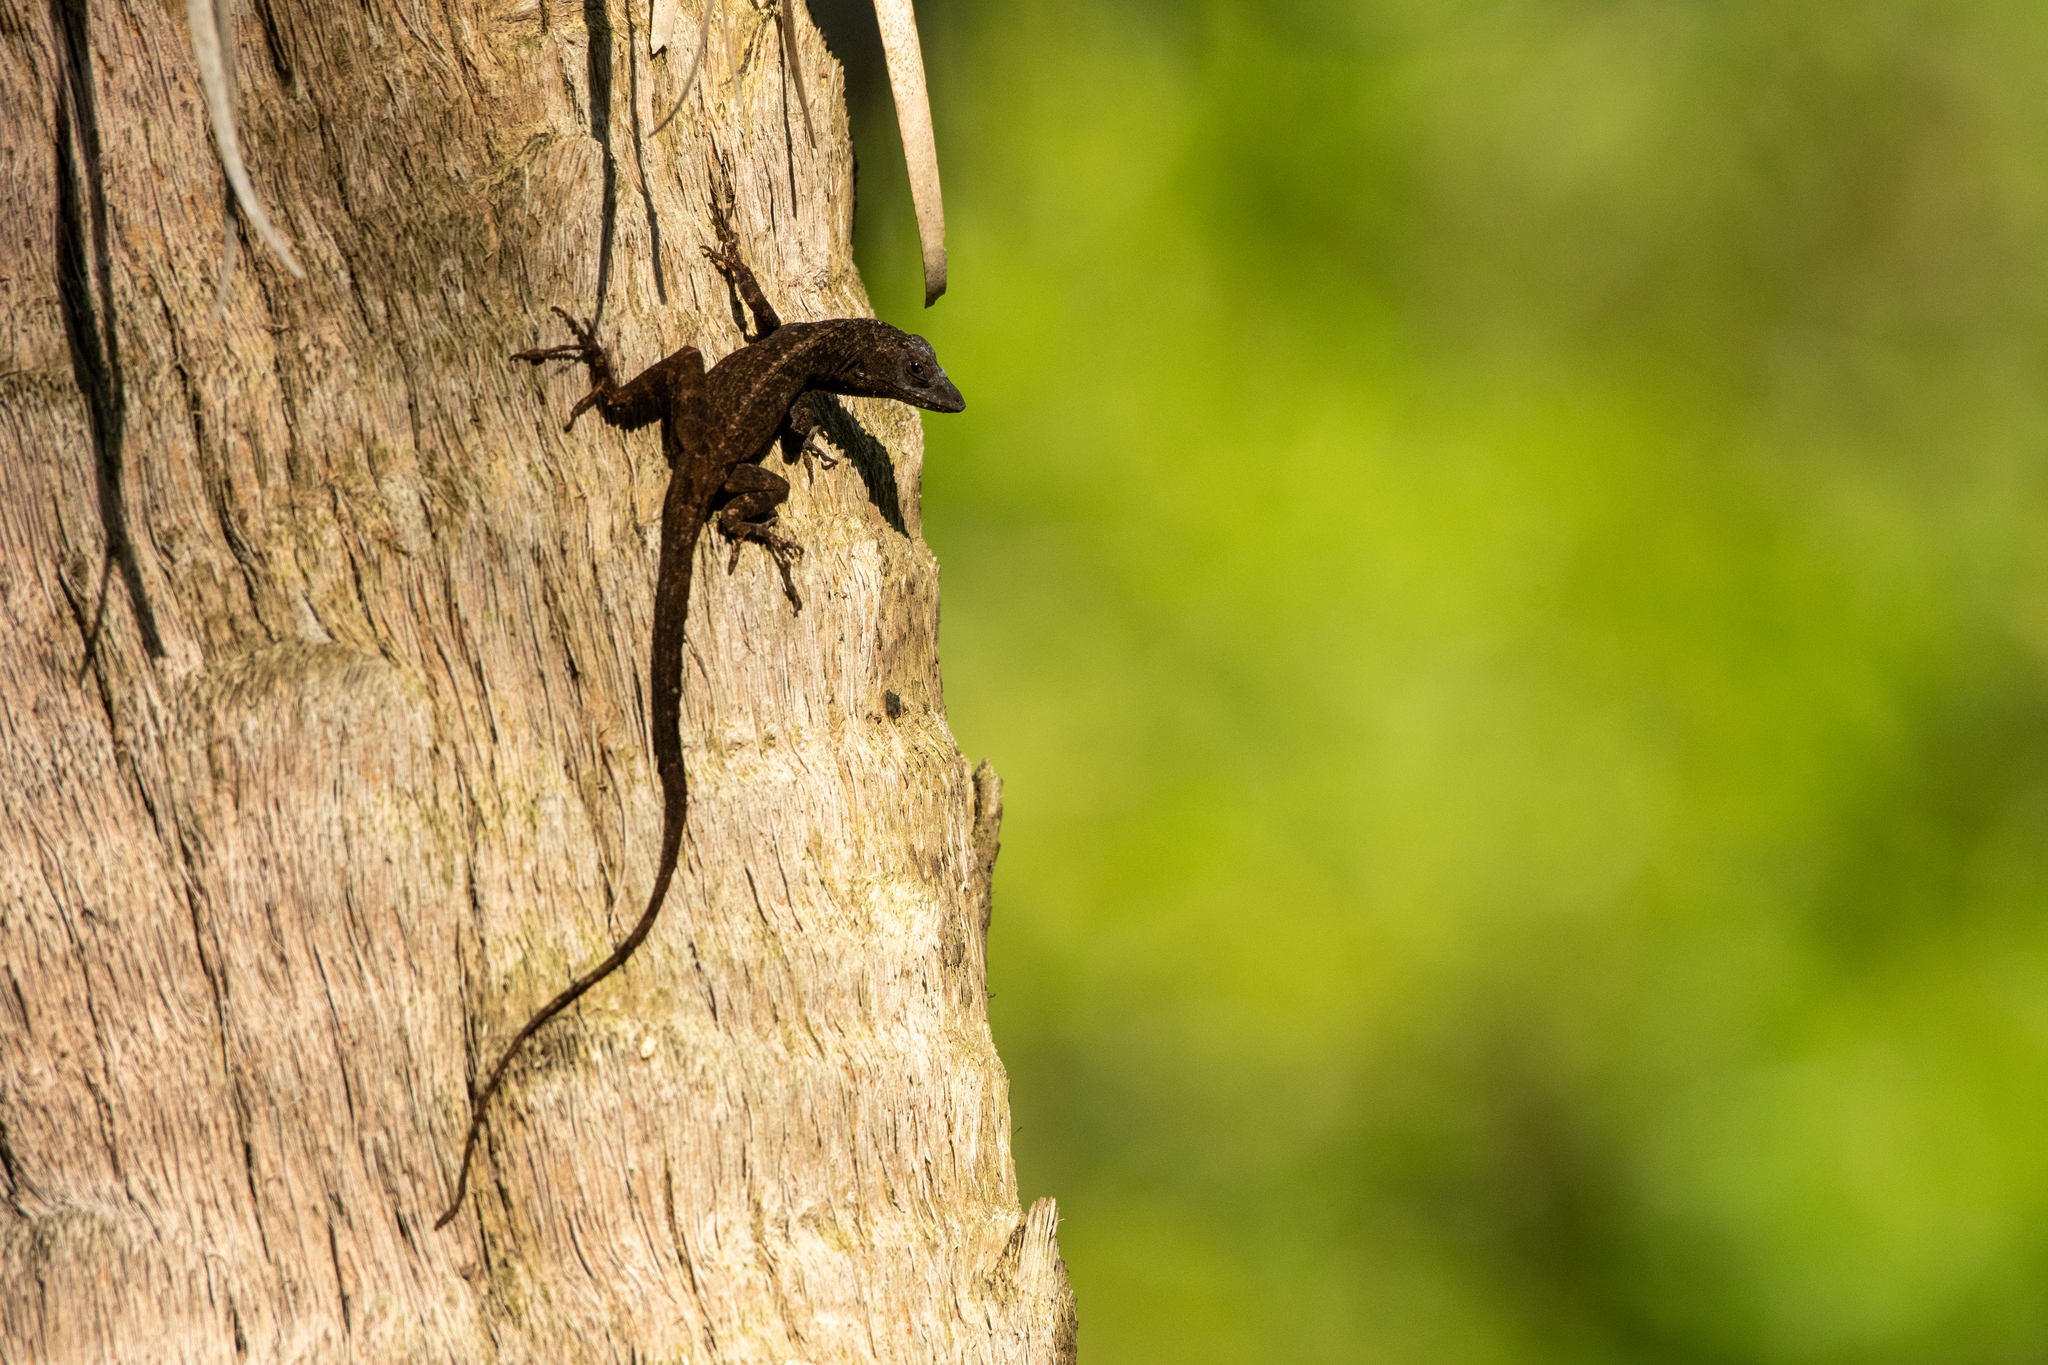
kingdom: Animalia
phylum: Chordata
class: Squamata
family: Dactyloidae
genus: Anolis
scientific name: Anolis sagrei
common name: Brown anole
